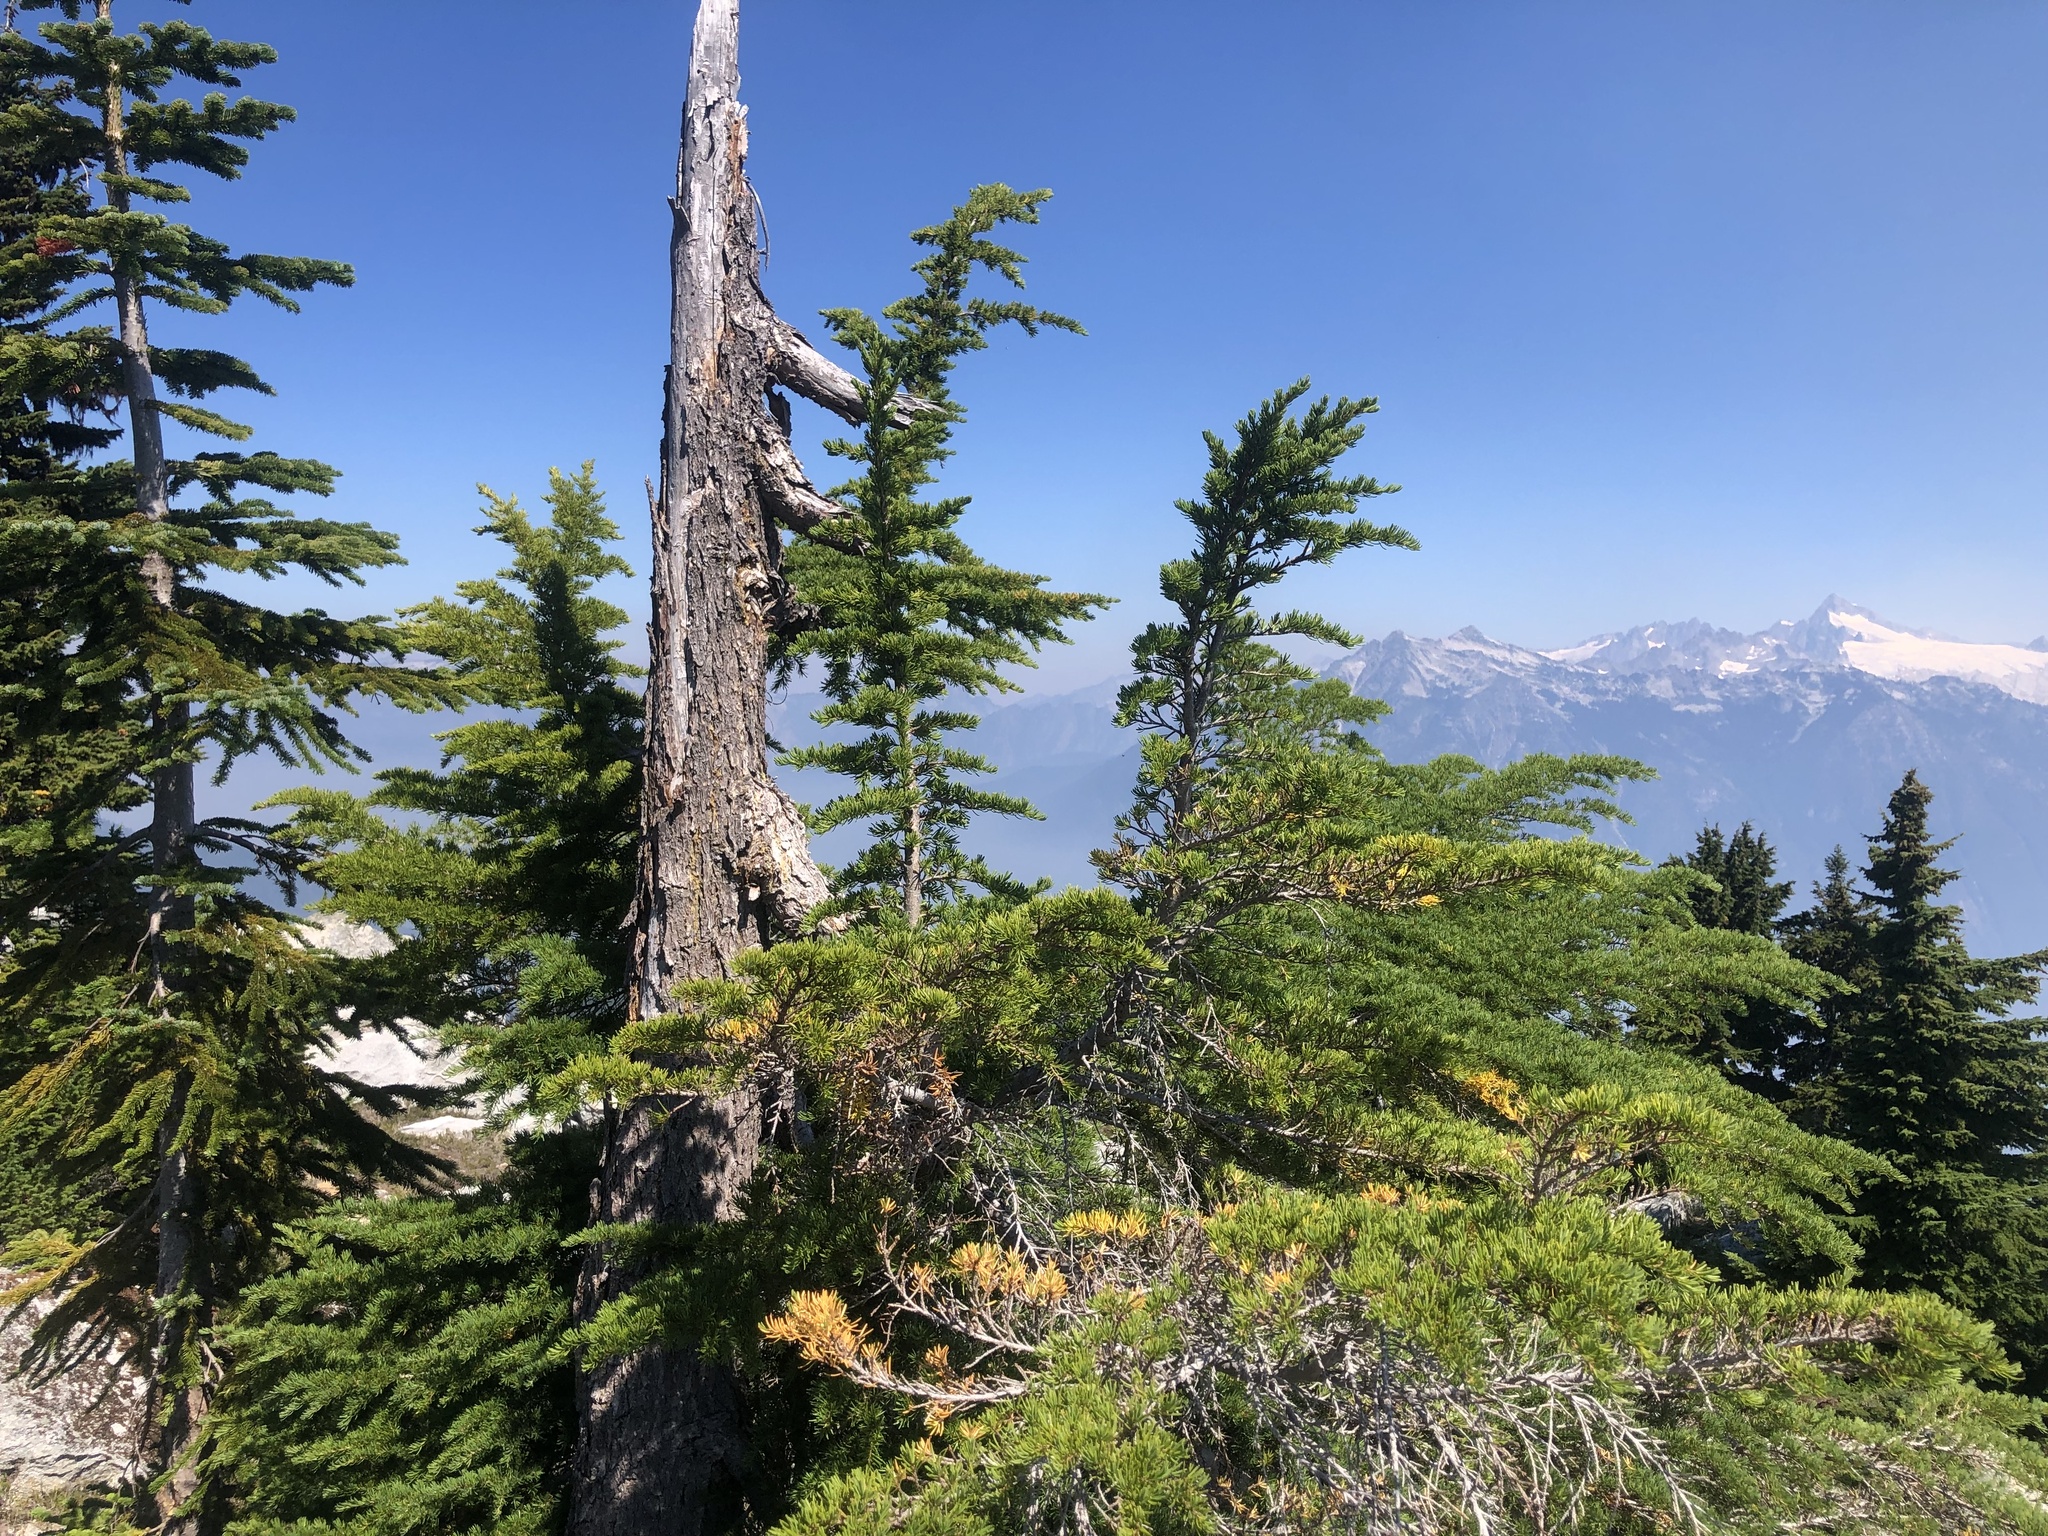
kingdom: Plantae
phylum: Tracheophyta
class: Pinopsida
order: Pinales
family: Pinaceae
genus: Tsuga
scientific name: Tsuga mertensiana
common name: Mountain hemlock
